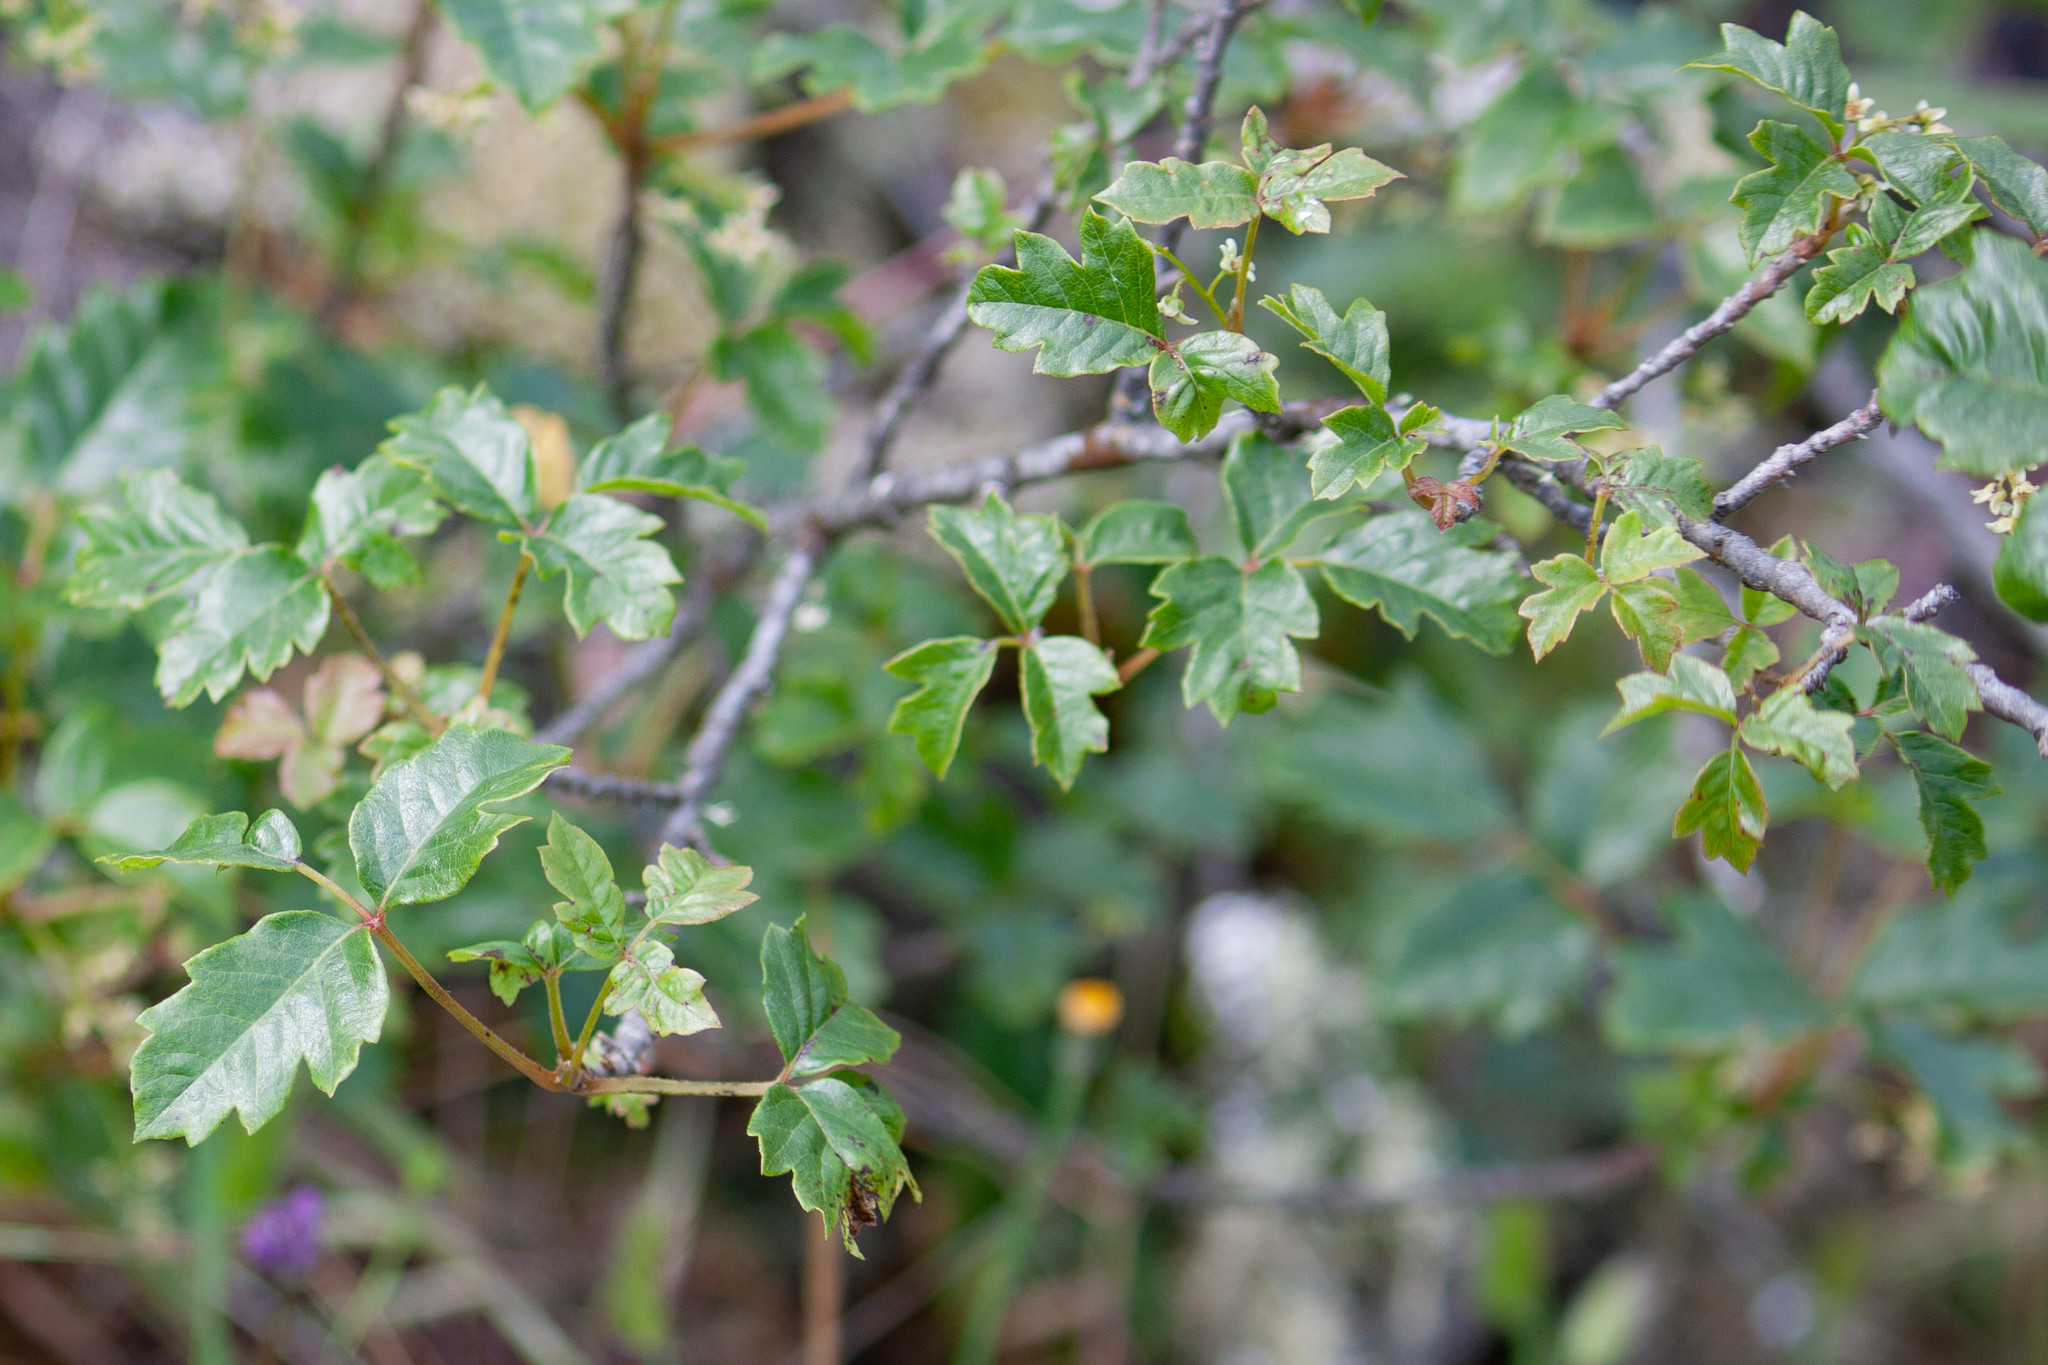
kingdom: Plantae
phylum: Tracheophyta
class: Magnoliopsida
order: Sapindales
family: Anacardiaceae
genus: Toxicodendron
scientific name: Toxicodendron diversilobum
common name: Pacific poison-oak
